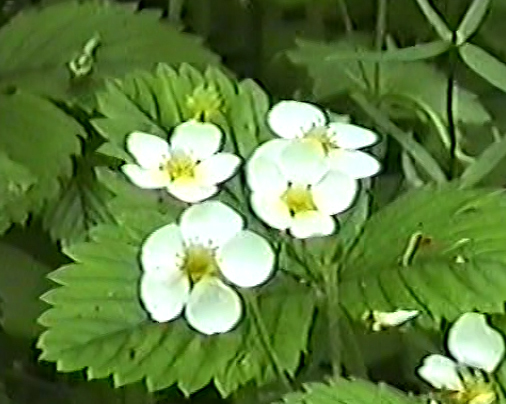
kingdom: Plantae
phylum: Tracheophyta
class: Magnoliopsida
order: Rosales
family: Rosaceae
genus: Fragaria
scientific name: Fragaria moschata
